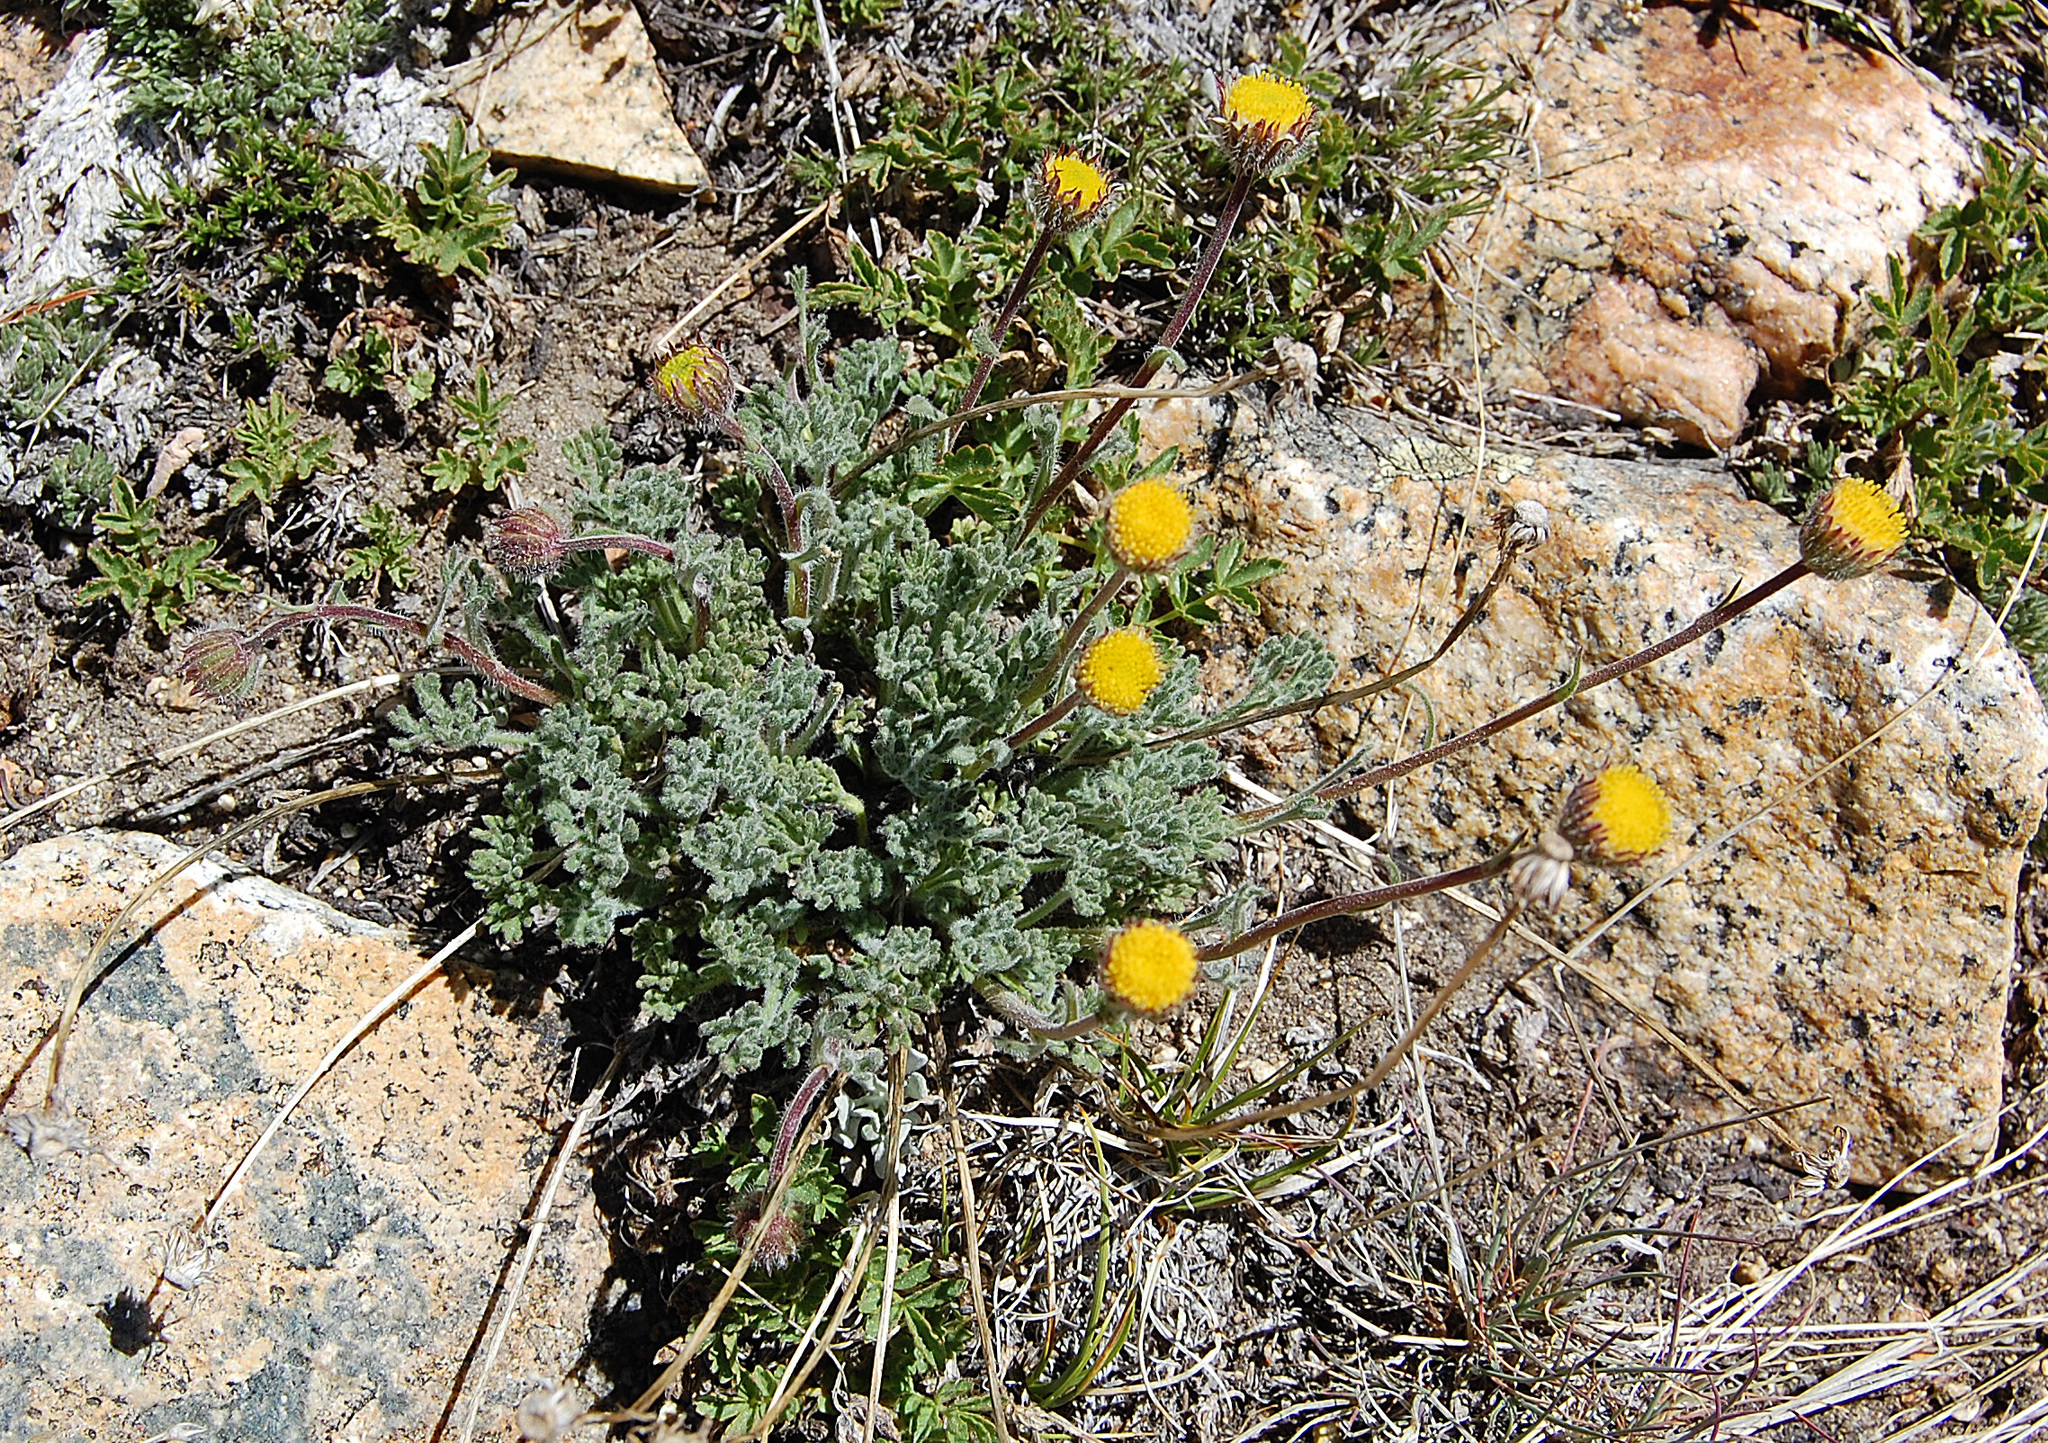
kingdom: Plantae
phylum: Tracheophyta
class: Magnoliopsida
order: Asterales
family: Asteraceae
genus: Erigeron
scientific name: Erigeron compositus
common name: Dwarf mountain fleabane
